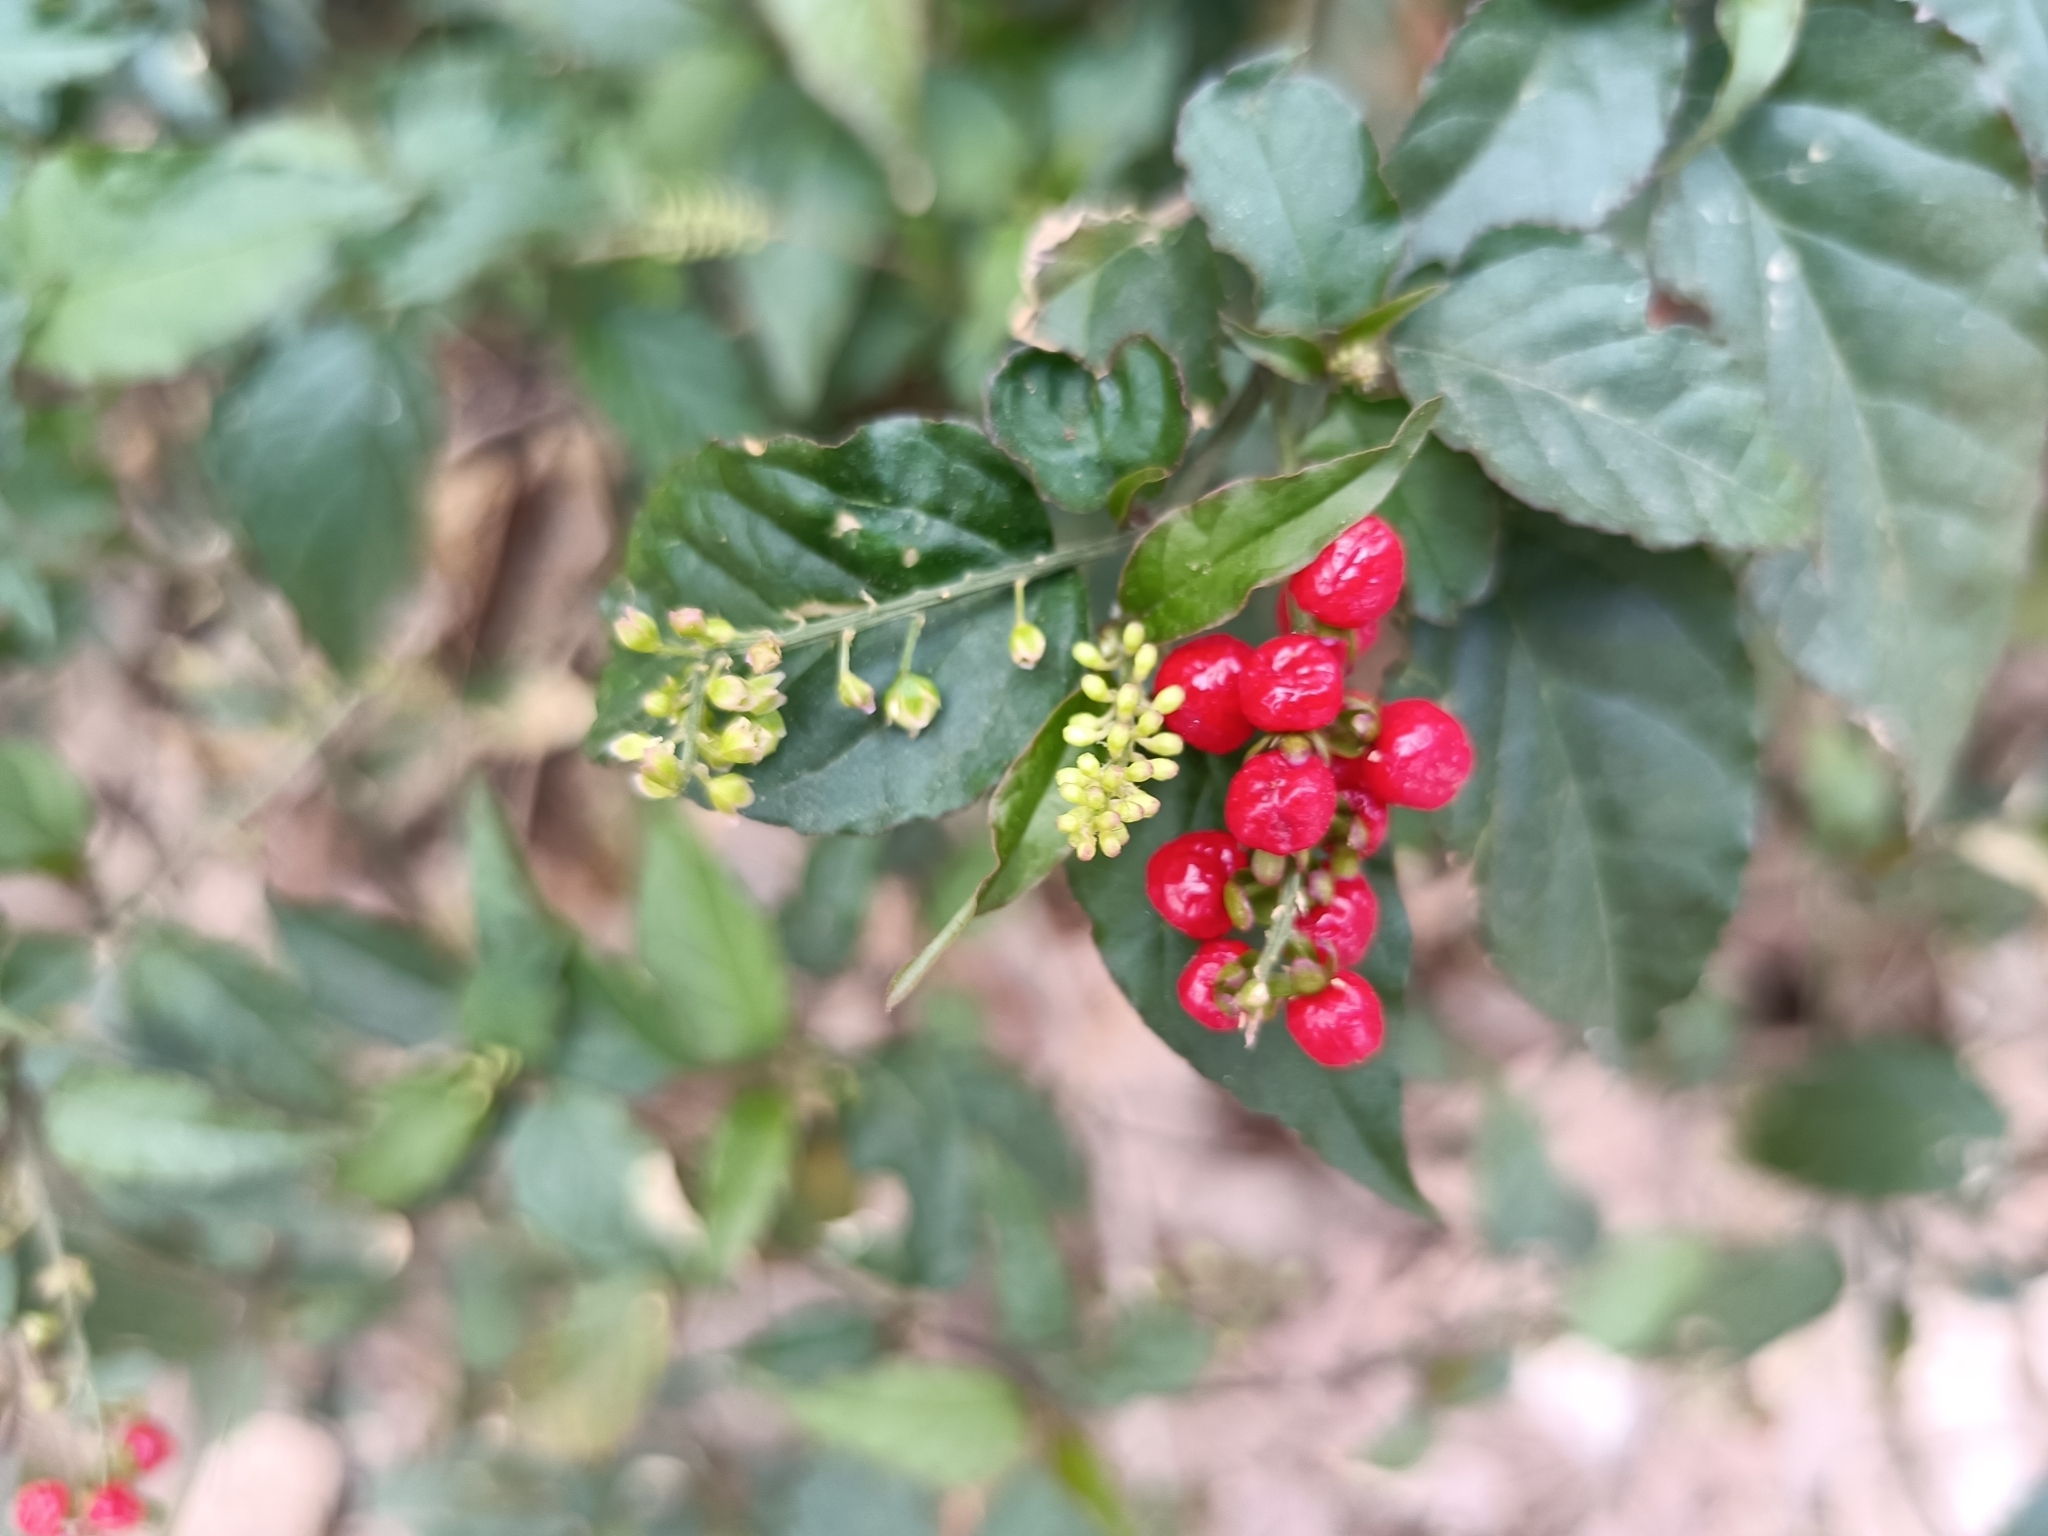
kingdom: Plantae
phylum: Tracheophyta
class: Magnoliopsida
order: Caryophyllales
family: Phytolaccaceae
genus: Rivina
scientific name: Rivina humilis
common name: Rougeplant
